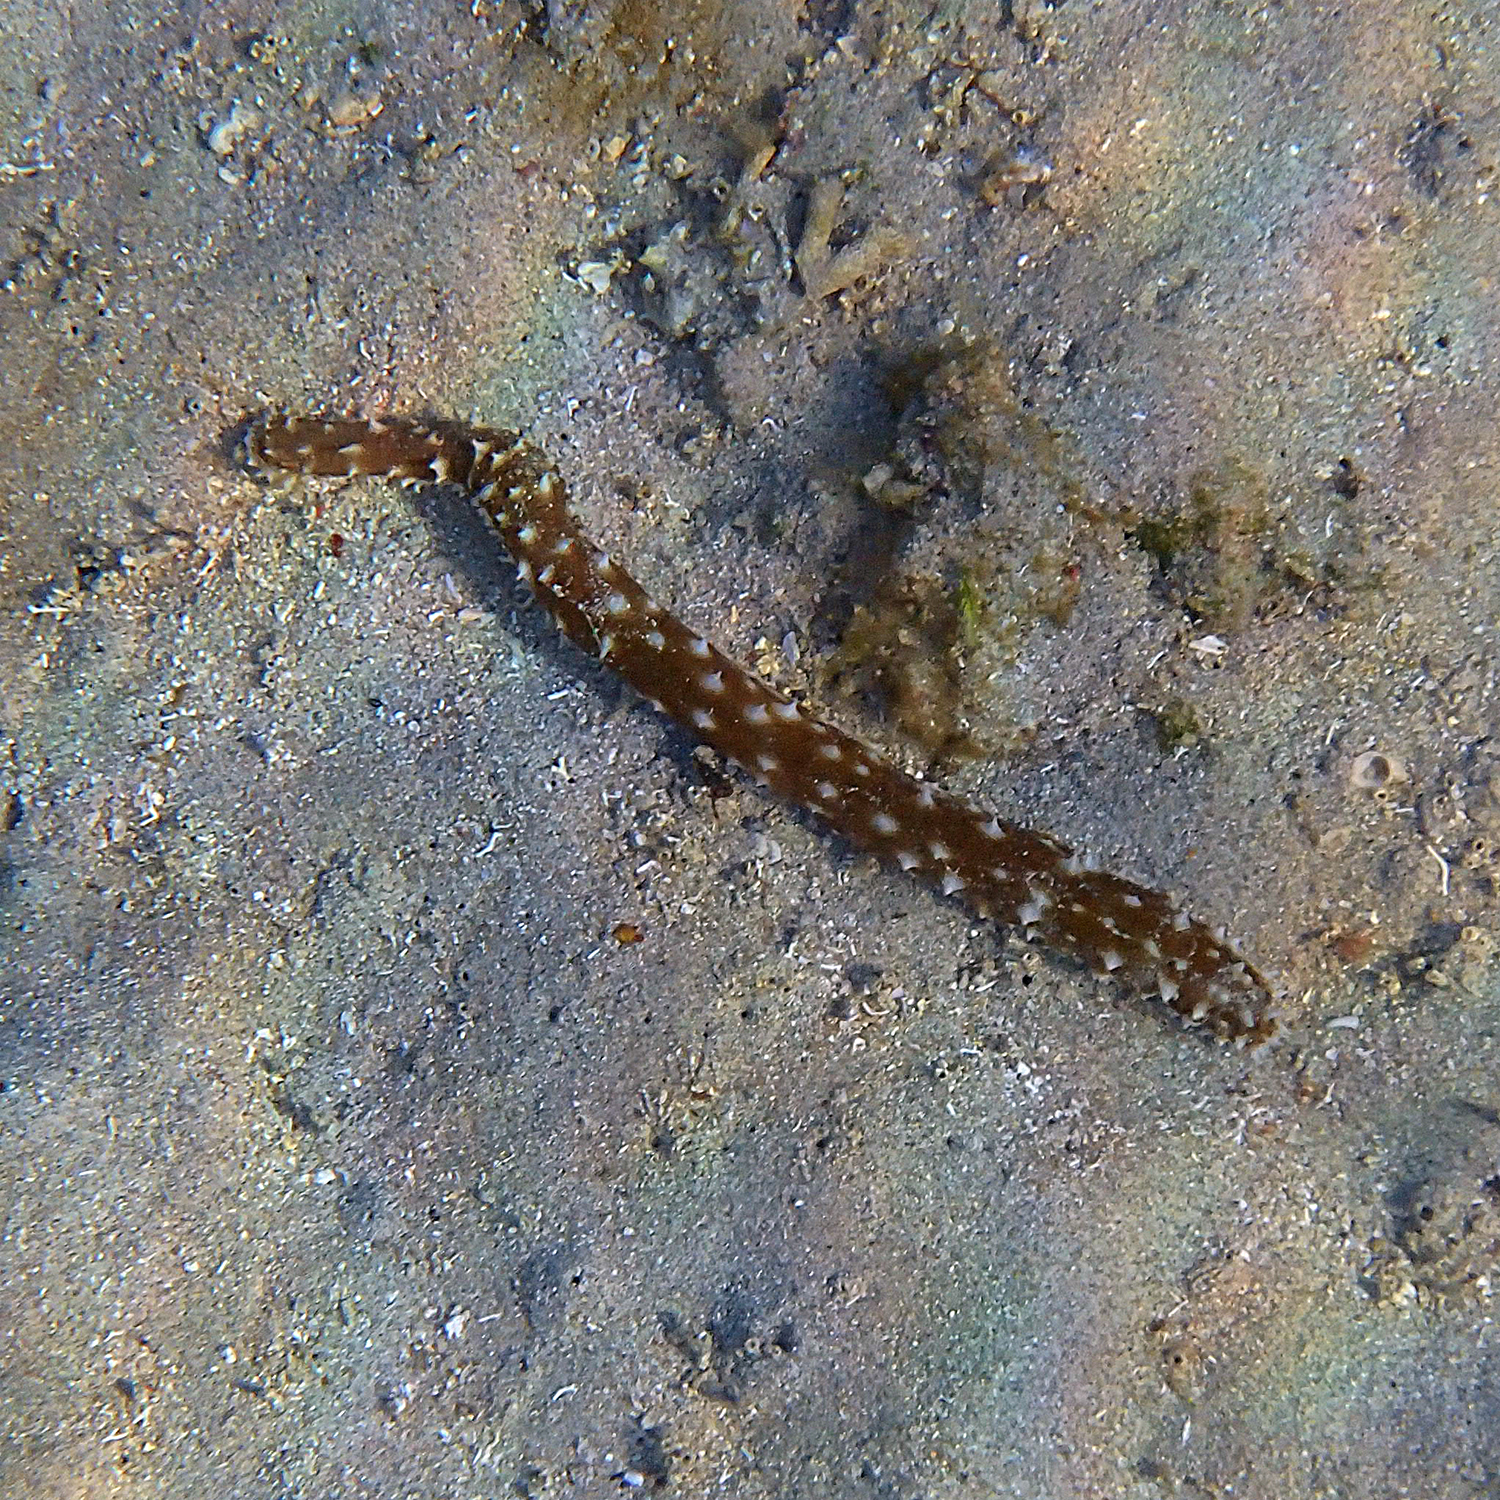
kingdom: Animalia
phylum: Echinodermata
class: Holothuroidea
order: Holothuriida
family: Holothuriidae
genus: Holothuria
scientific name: Holothuria hilla
